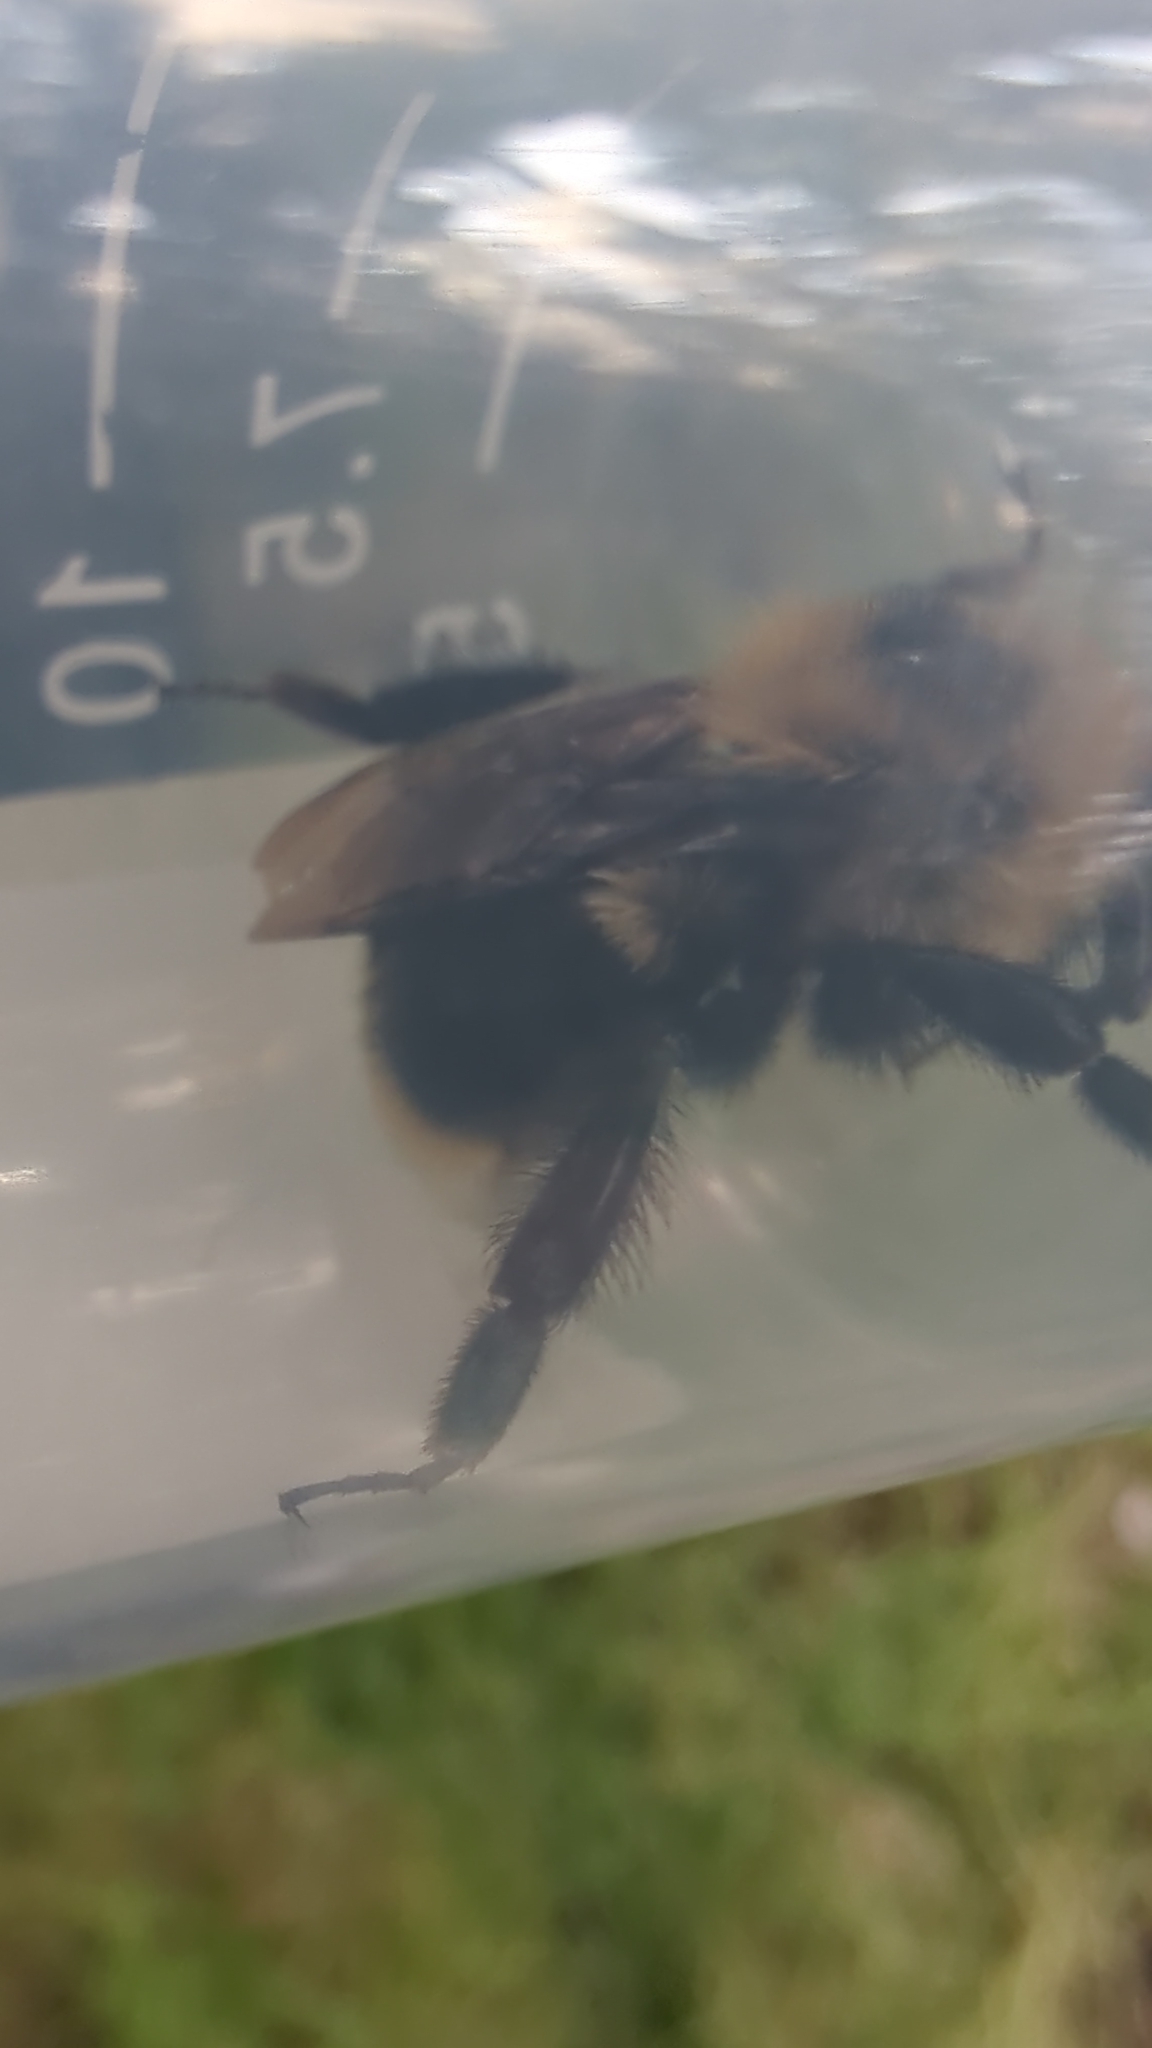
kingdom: Animalia
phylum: Arthropoda
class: Insecta
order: Hymenoptera
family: Apidae
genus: Bombus
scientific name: Bombus rufocinctus
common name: Red-belted bumble bee
